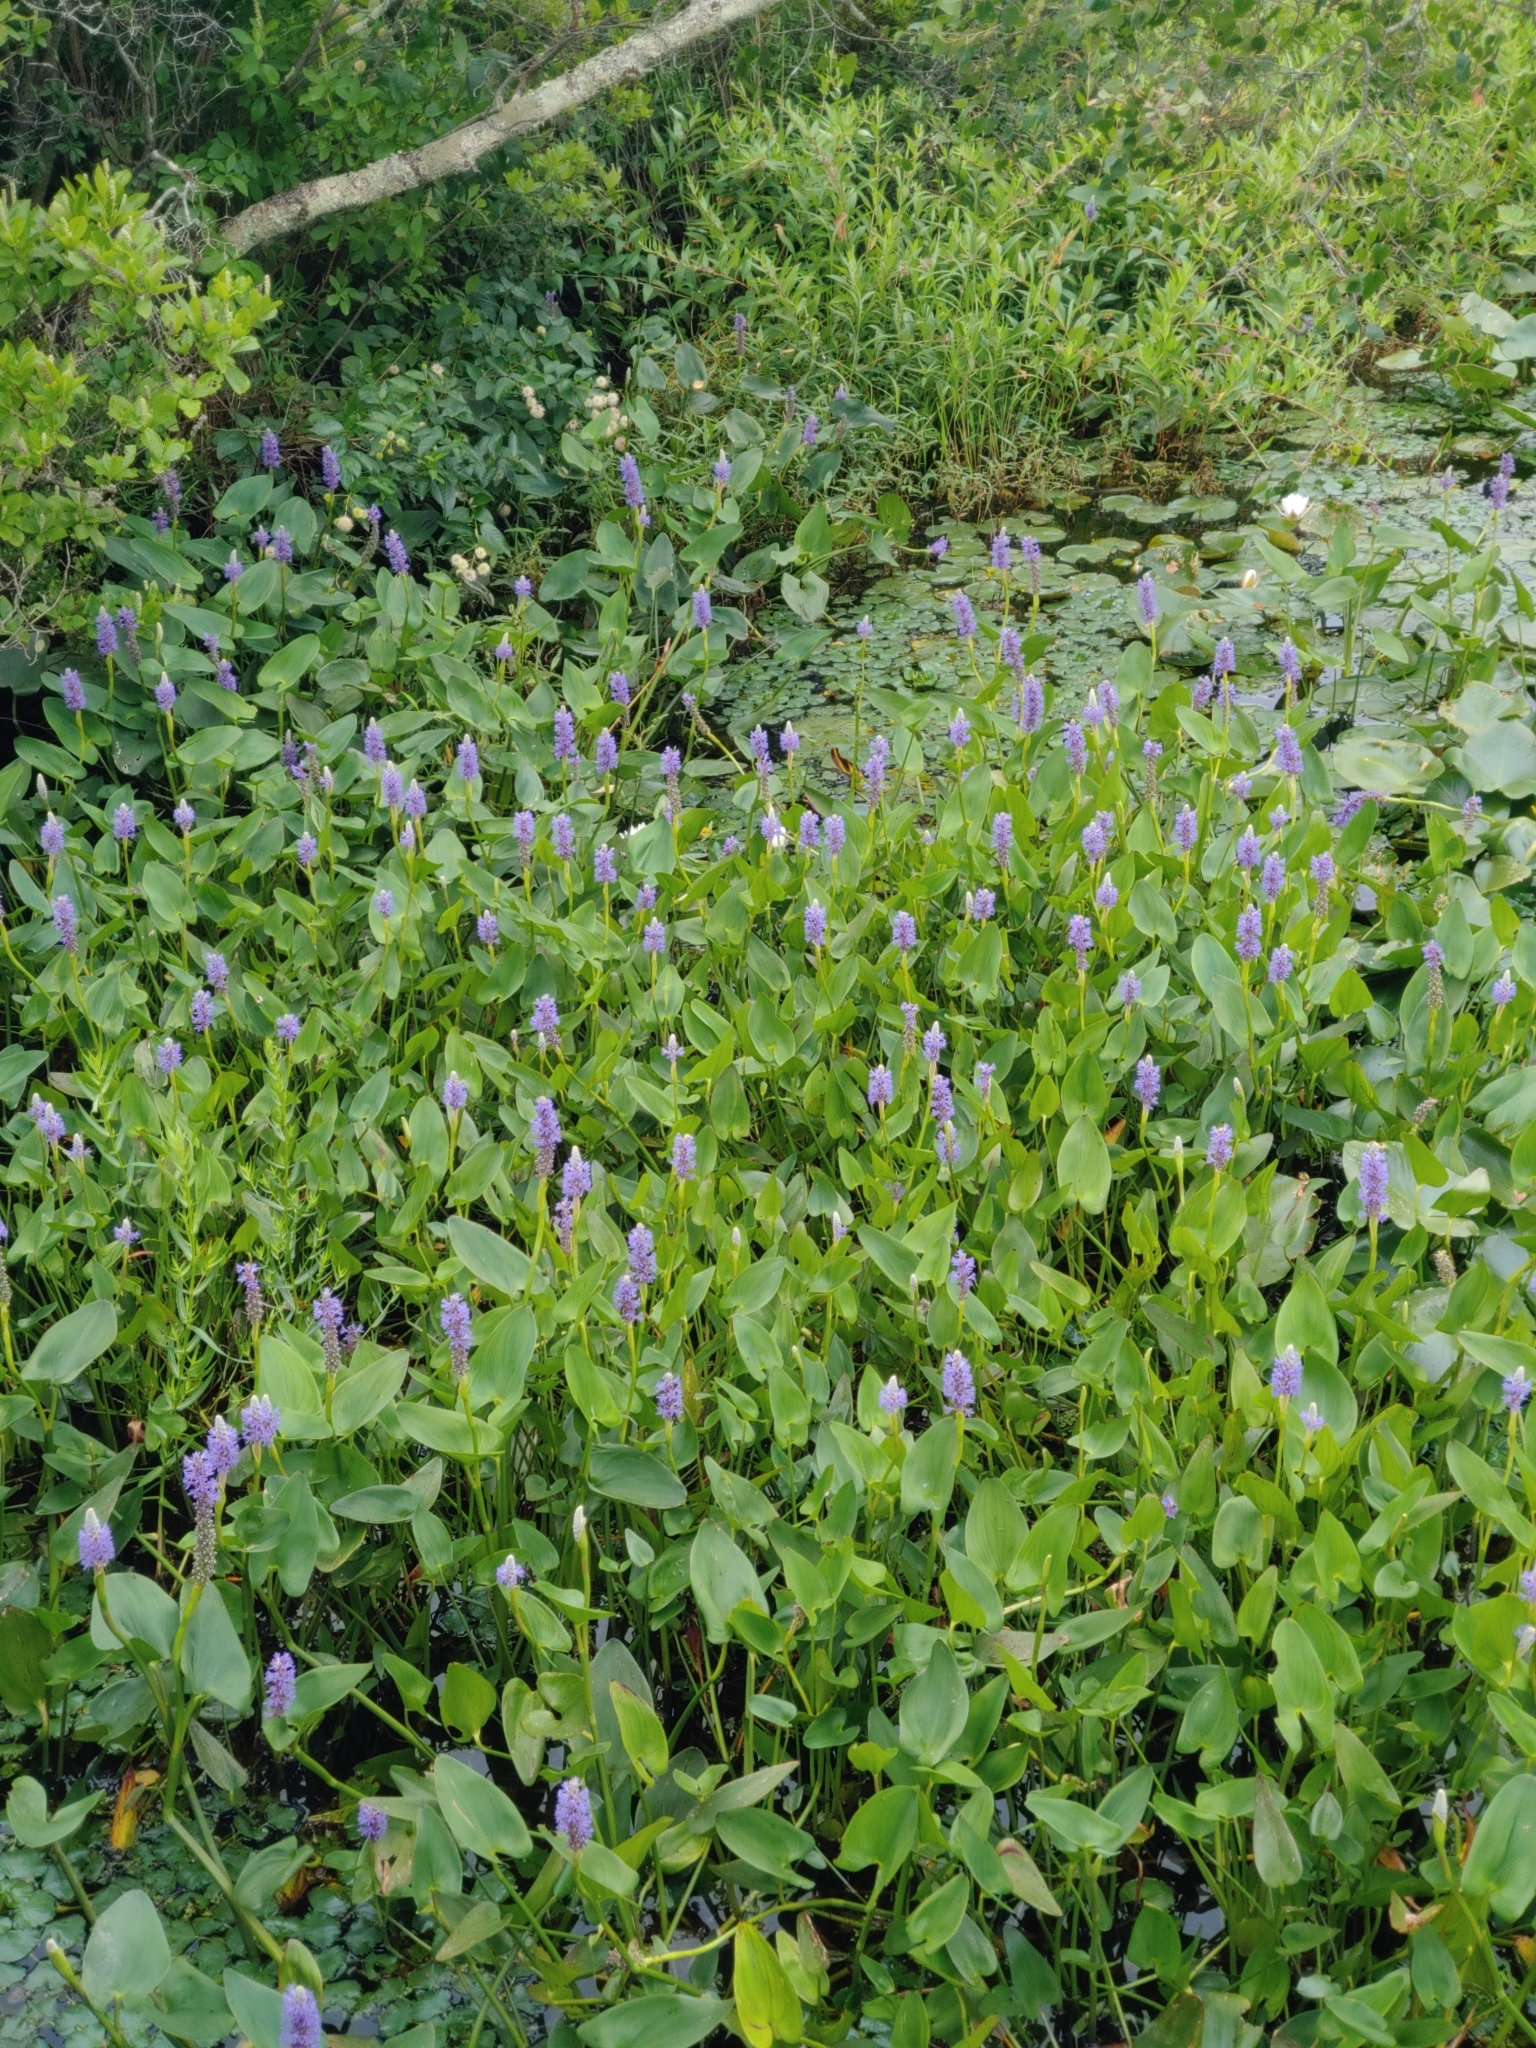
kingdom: Plantae
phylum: Tracheophyta
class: Liliopsida
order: Commelinales
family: Pontederiaceae
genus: Pontederia
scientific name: Pontederia cordata
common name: Pickerelweed
